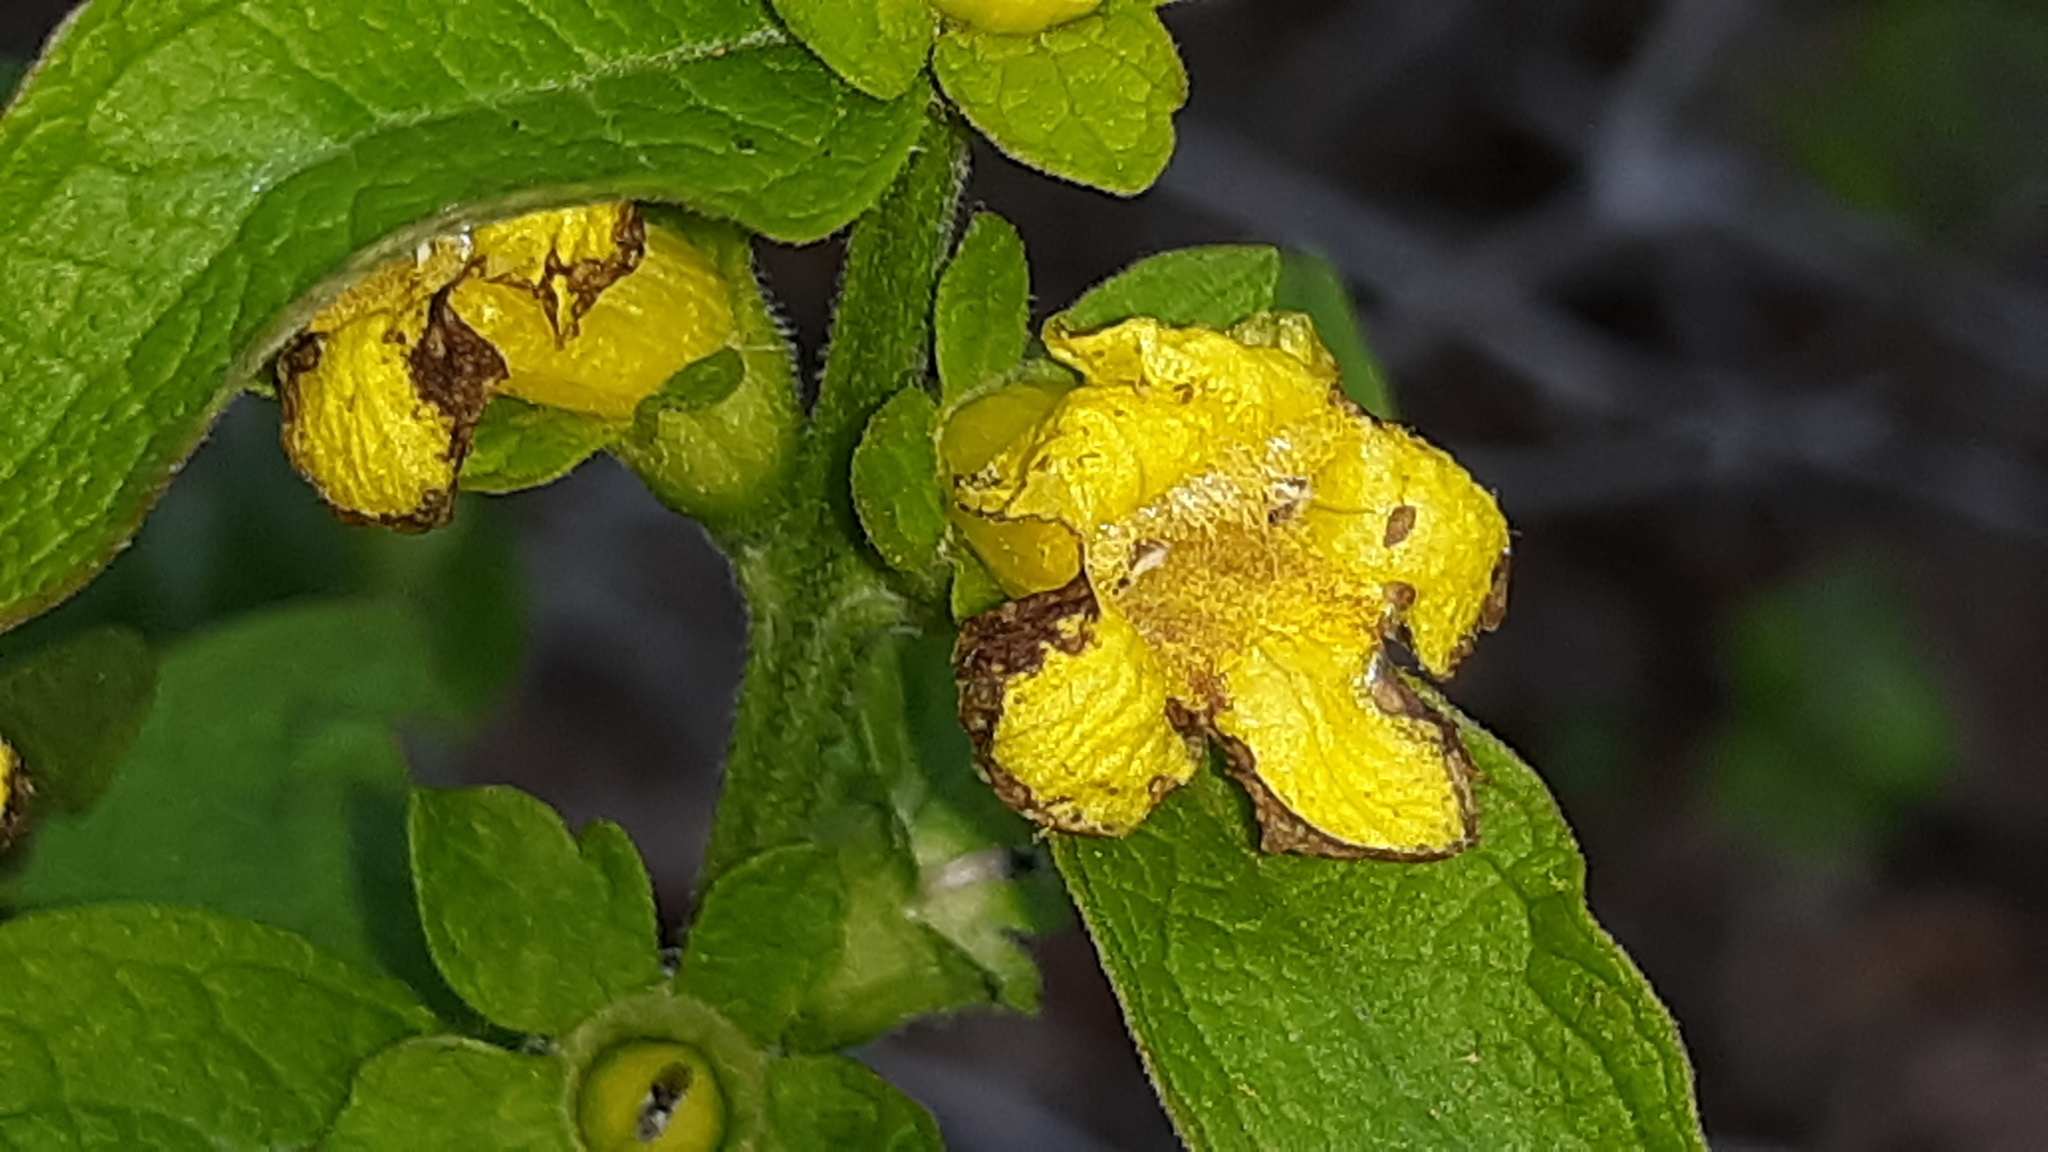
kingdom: Plantae
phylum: Tracheophyta
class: Magnoliopsida
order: Lamiales
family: Orobanchaceae
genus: Dasistoma
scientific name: Dasistoma macrophyllum
